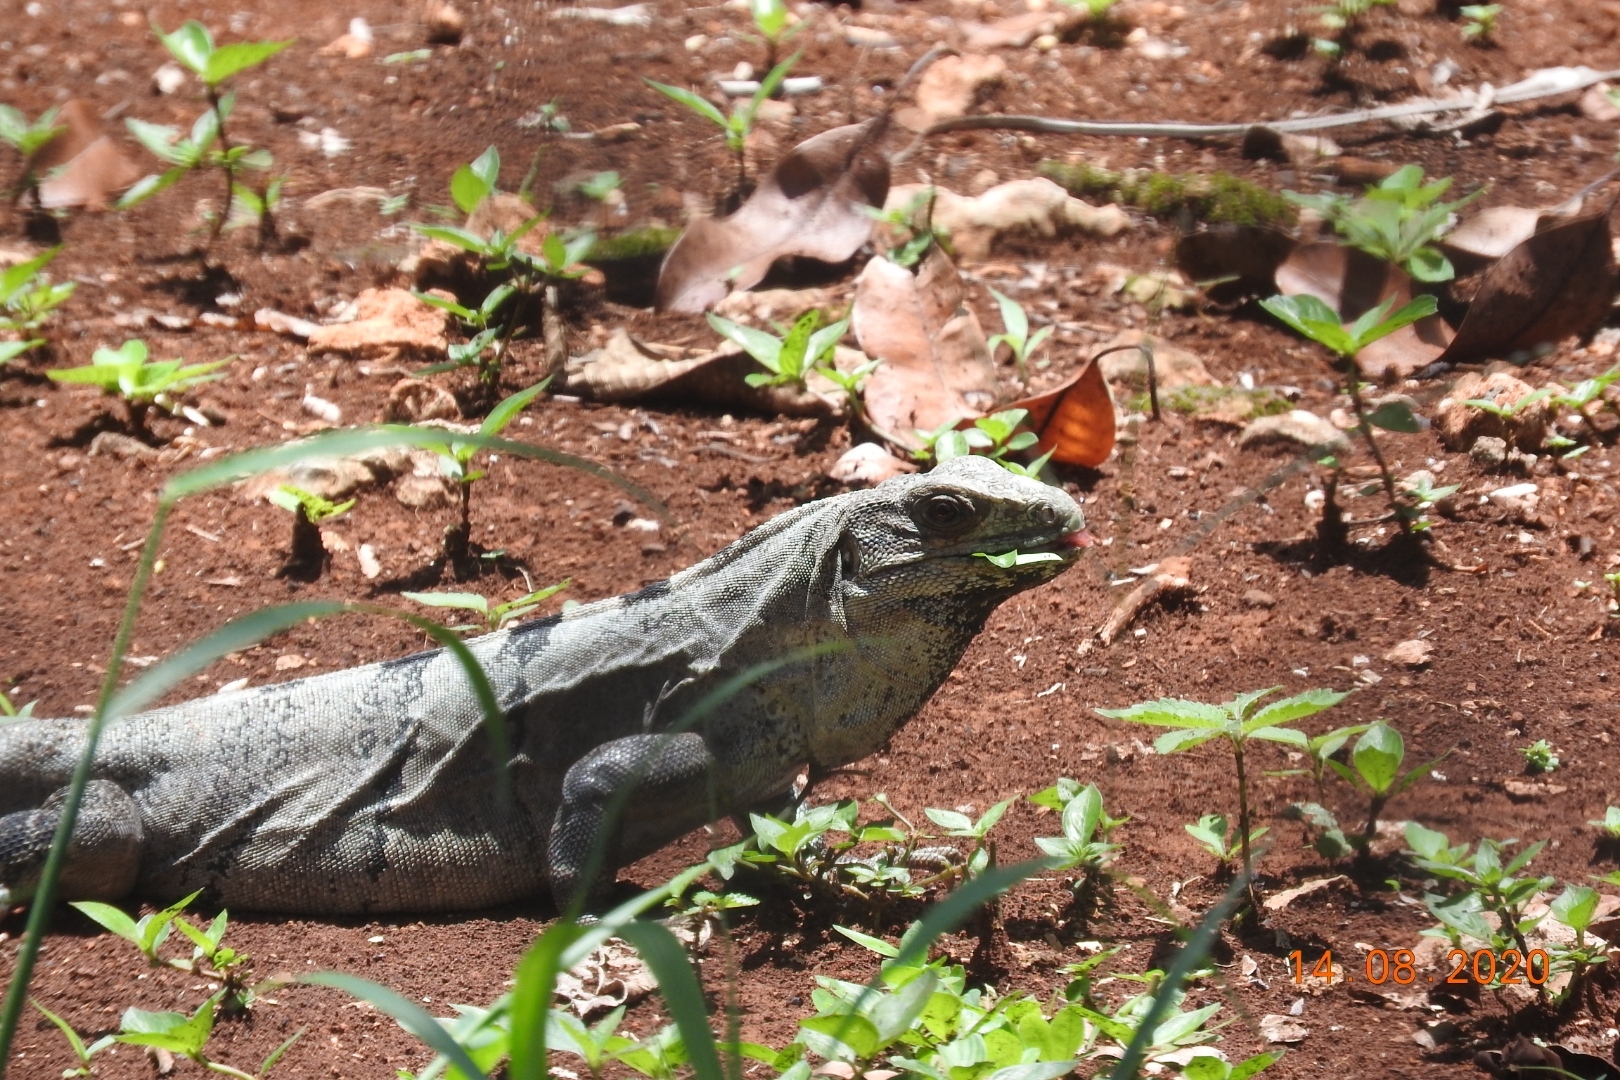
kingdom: Animalia
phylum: Chordata
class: Squamata
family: Iguanidae
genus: Ctenosaura
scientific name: Ctenosaura similis
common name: Black spiny-tailed iguana
